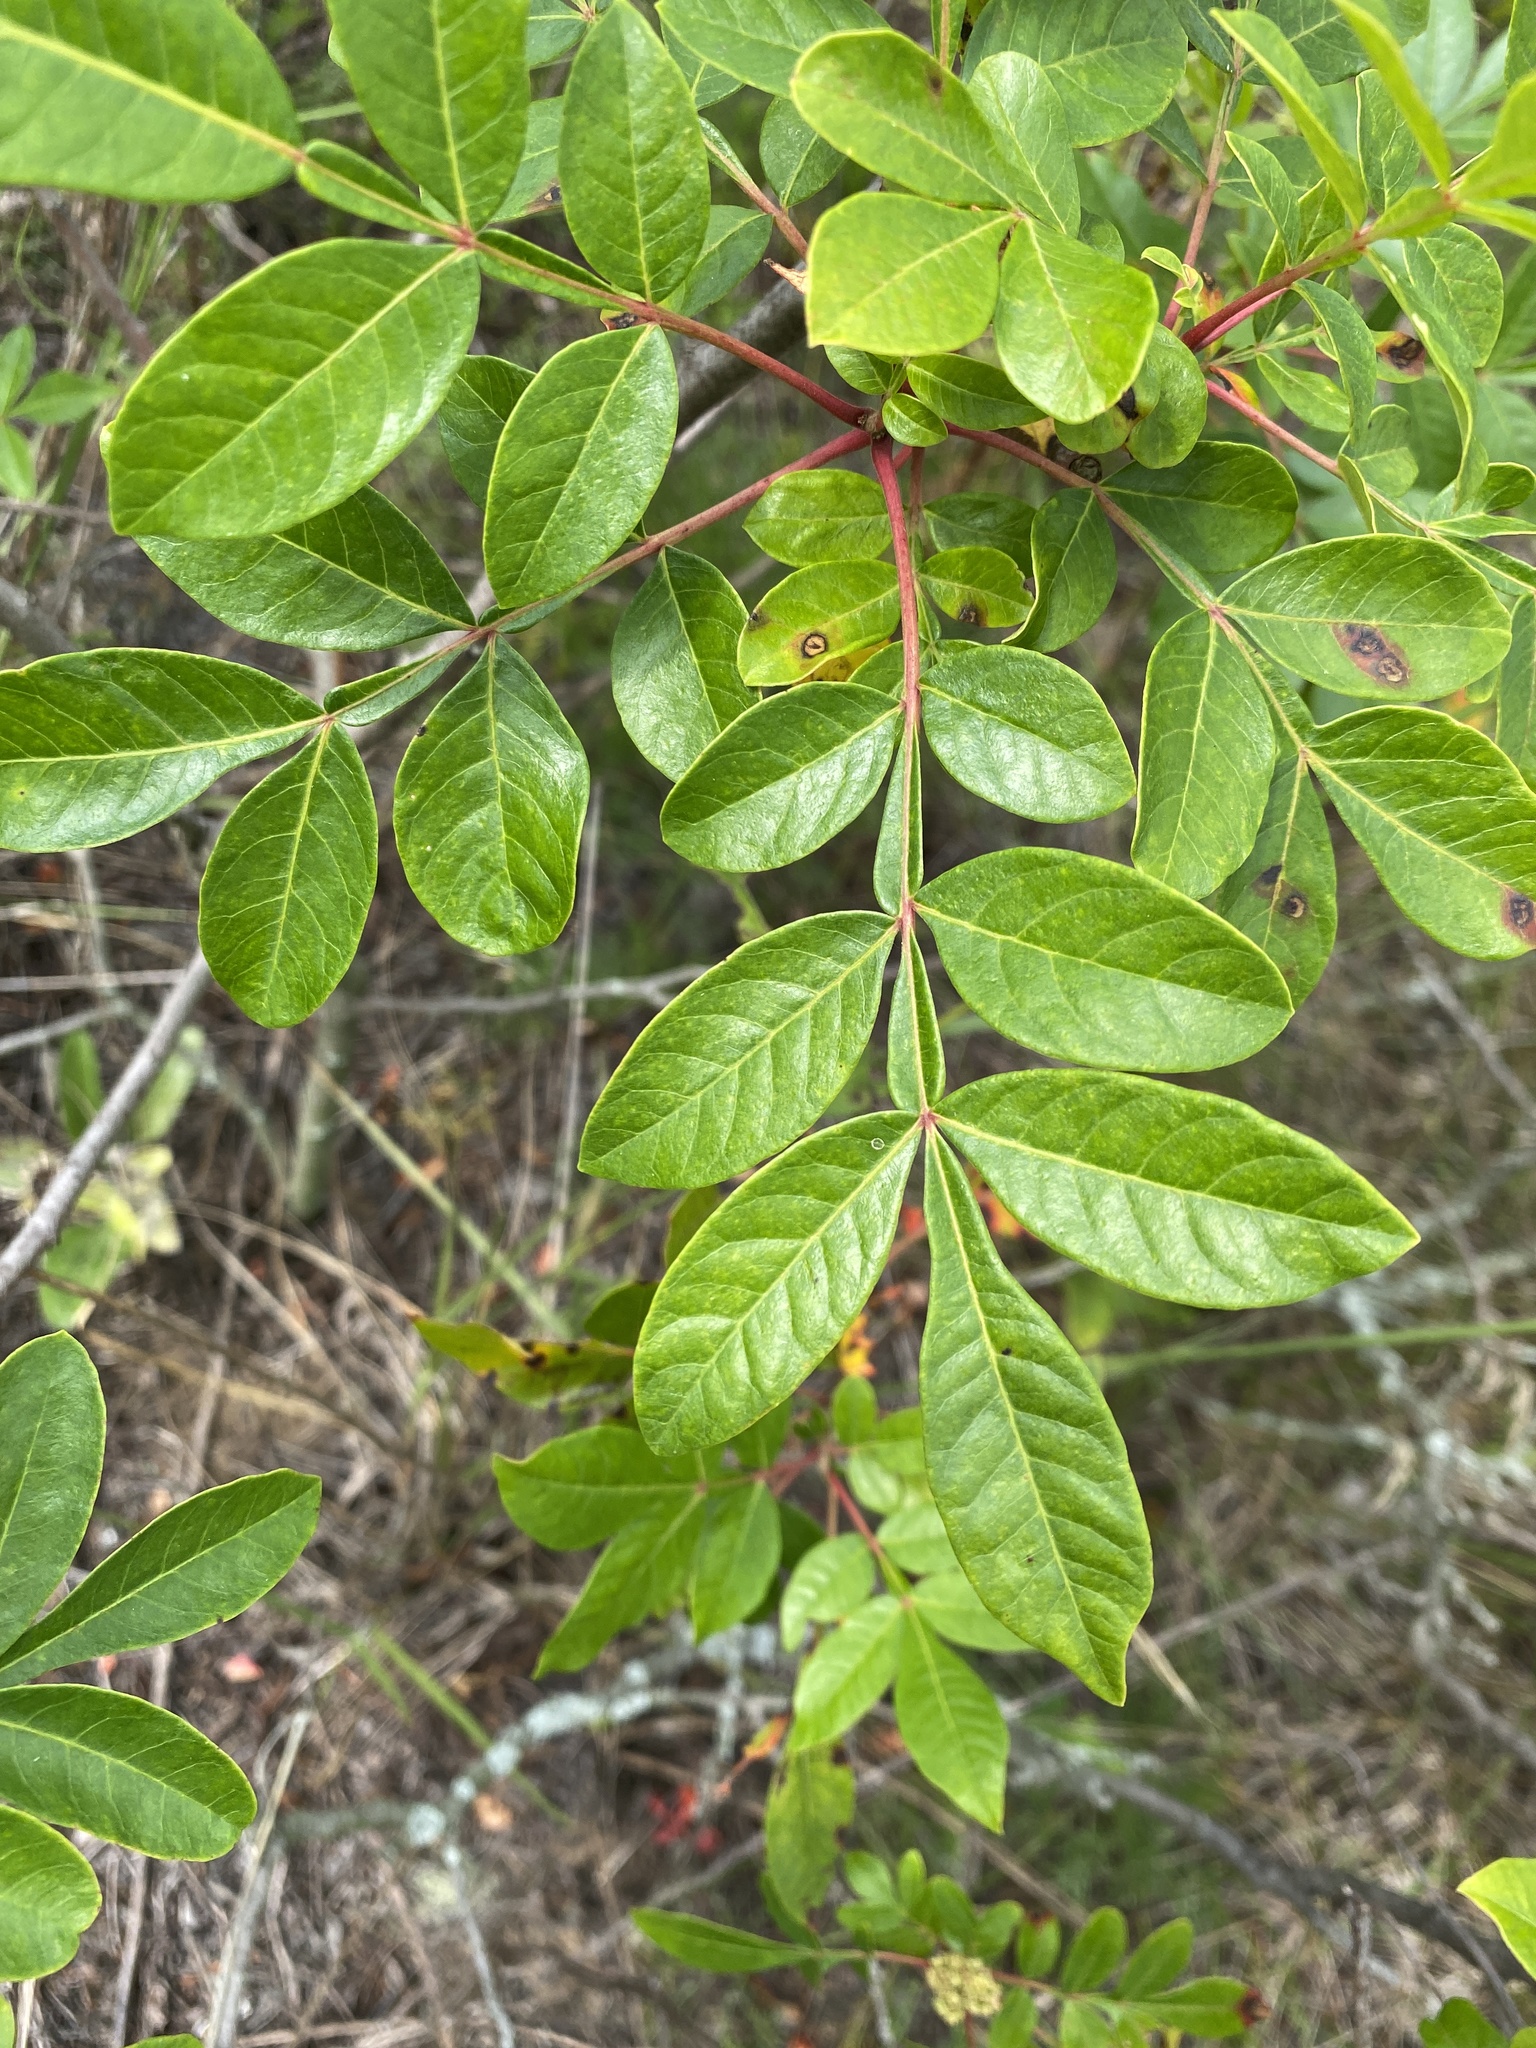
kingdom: Plantae
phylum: Tracheophyta
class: Magnoliopsida
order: Sapindales
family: Anacardiaceae
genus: Rhus
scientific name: Rhus copallina
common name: Shining sumac
